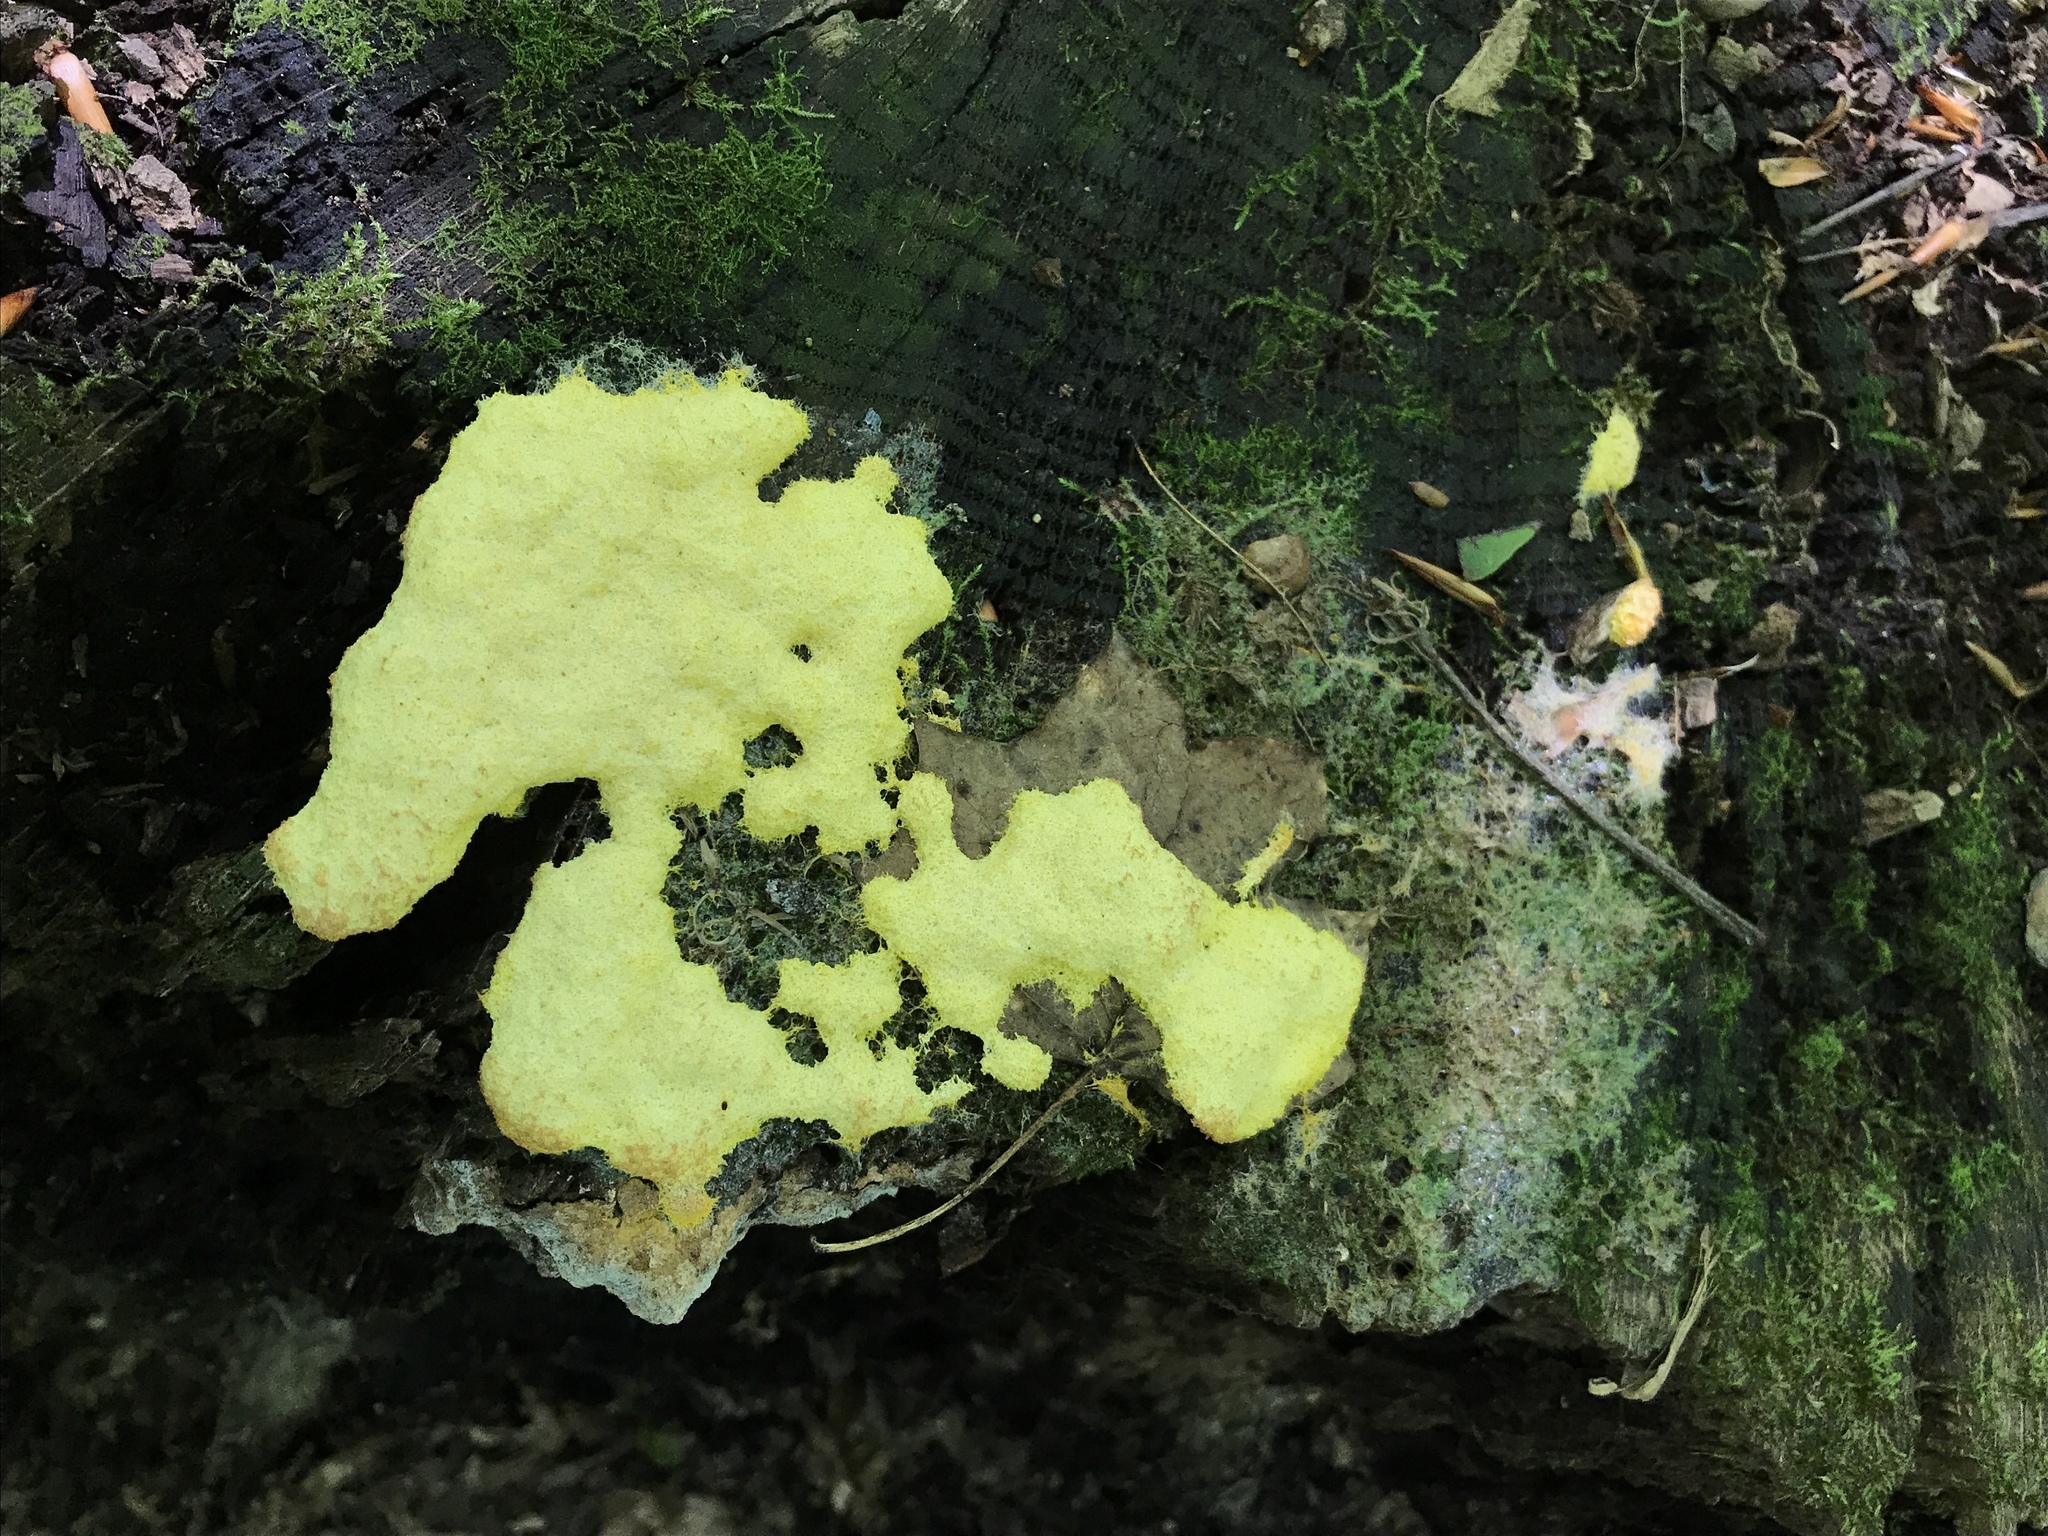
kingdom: Protozoa
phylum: Mycetozoa
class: Myxomycetes
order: Physarales
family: Physaraceae
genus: Fuligo
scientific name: Fuligo septica
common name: Dog vomit slime mold
